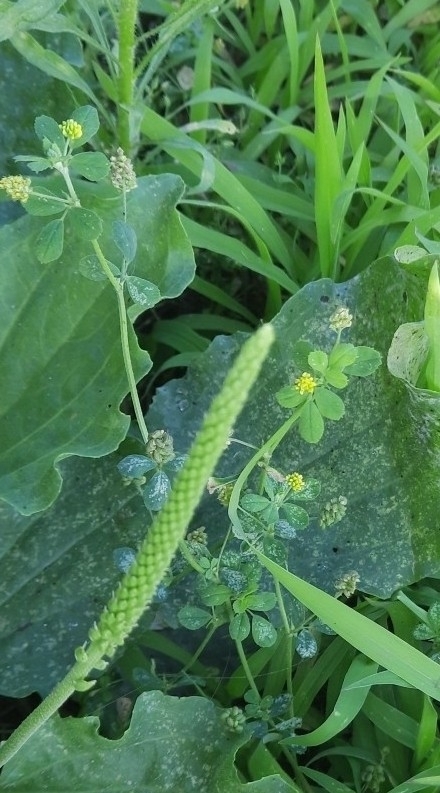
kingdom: Plantae
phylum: Tracheophyta
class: Magnoliopsida
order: Fabales
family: Fabaceae
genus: Medicago
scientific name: Medicago lupulina
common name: Black medick
